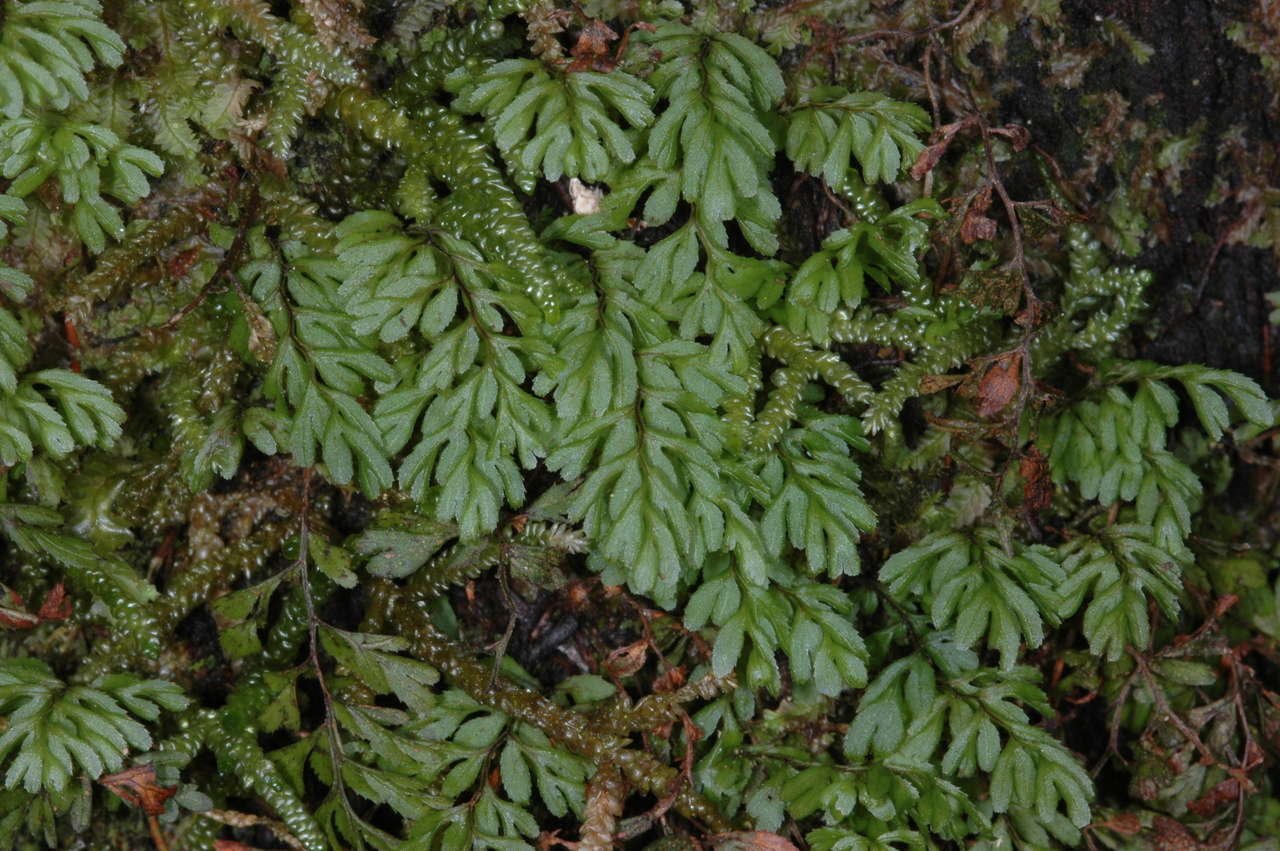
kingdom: Plantae
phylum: Tracheophyta
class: Polypodiopsida
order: Hymenophyllales
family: Hymenophyllaceae
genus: Hymenophyllum
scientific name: Hymenophyllum cupressiforme
